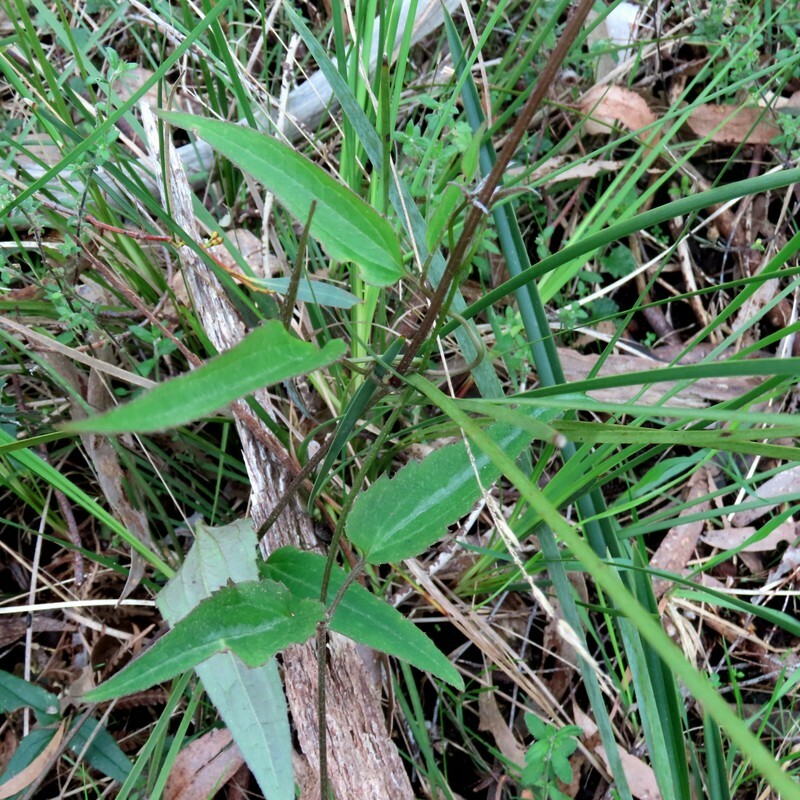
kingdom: Plantae
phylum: Tracheophyta
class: Magnoliopsida
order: Ranunculales
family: Ranunculaceae
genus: Clematis
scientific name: Clematis aristata
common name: Mountain clematis
